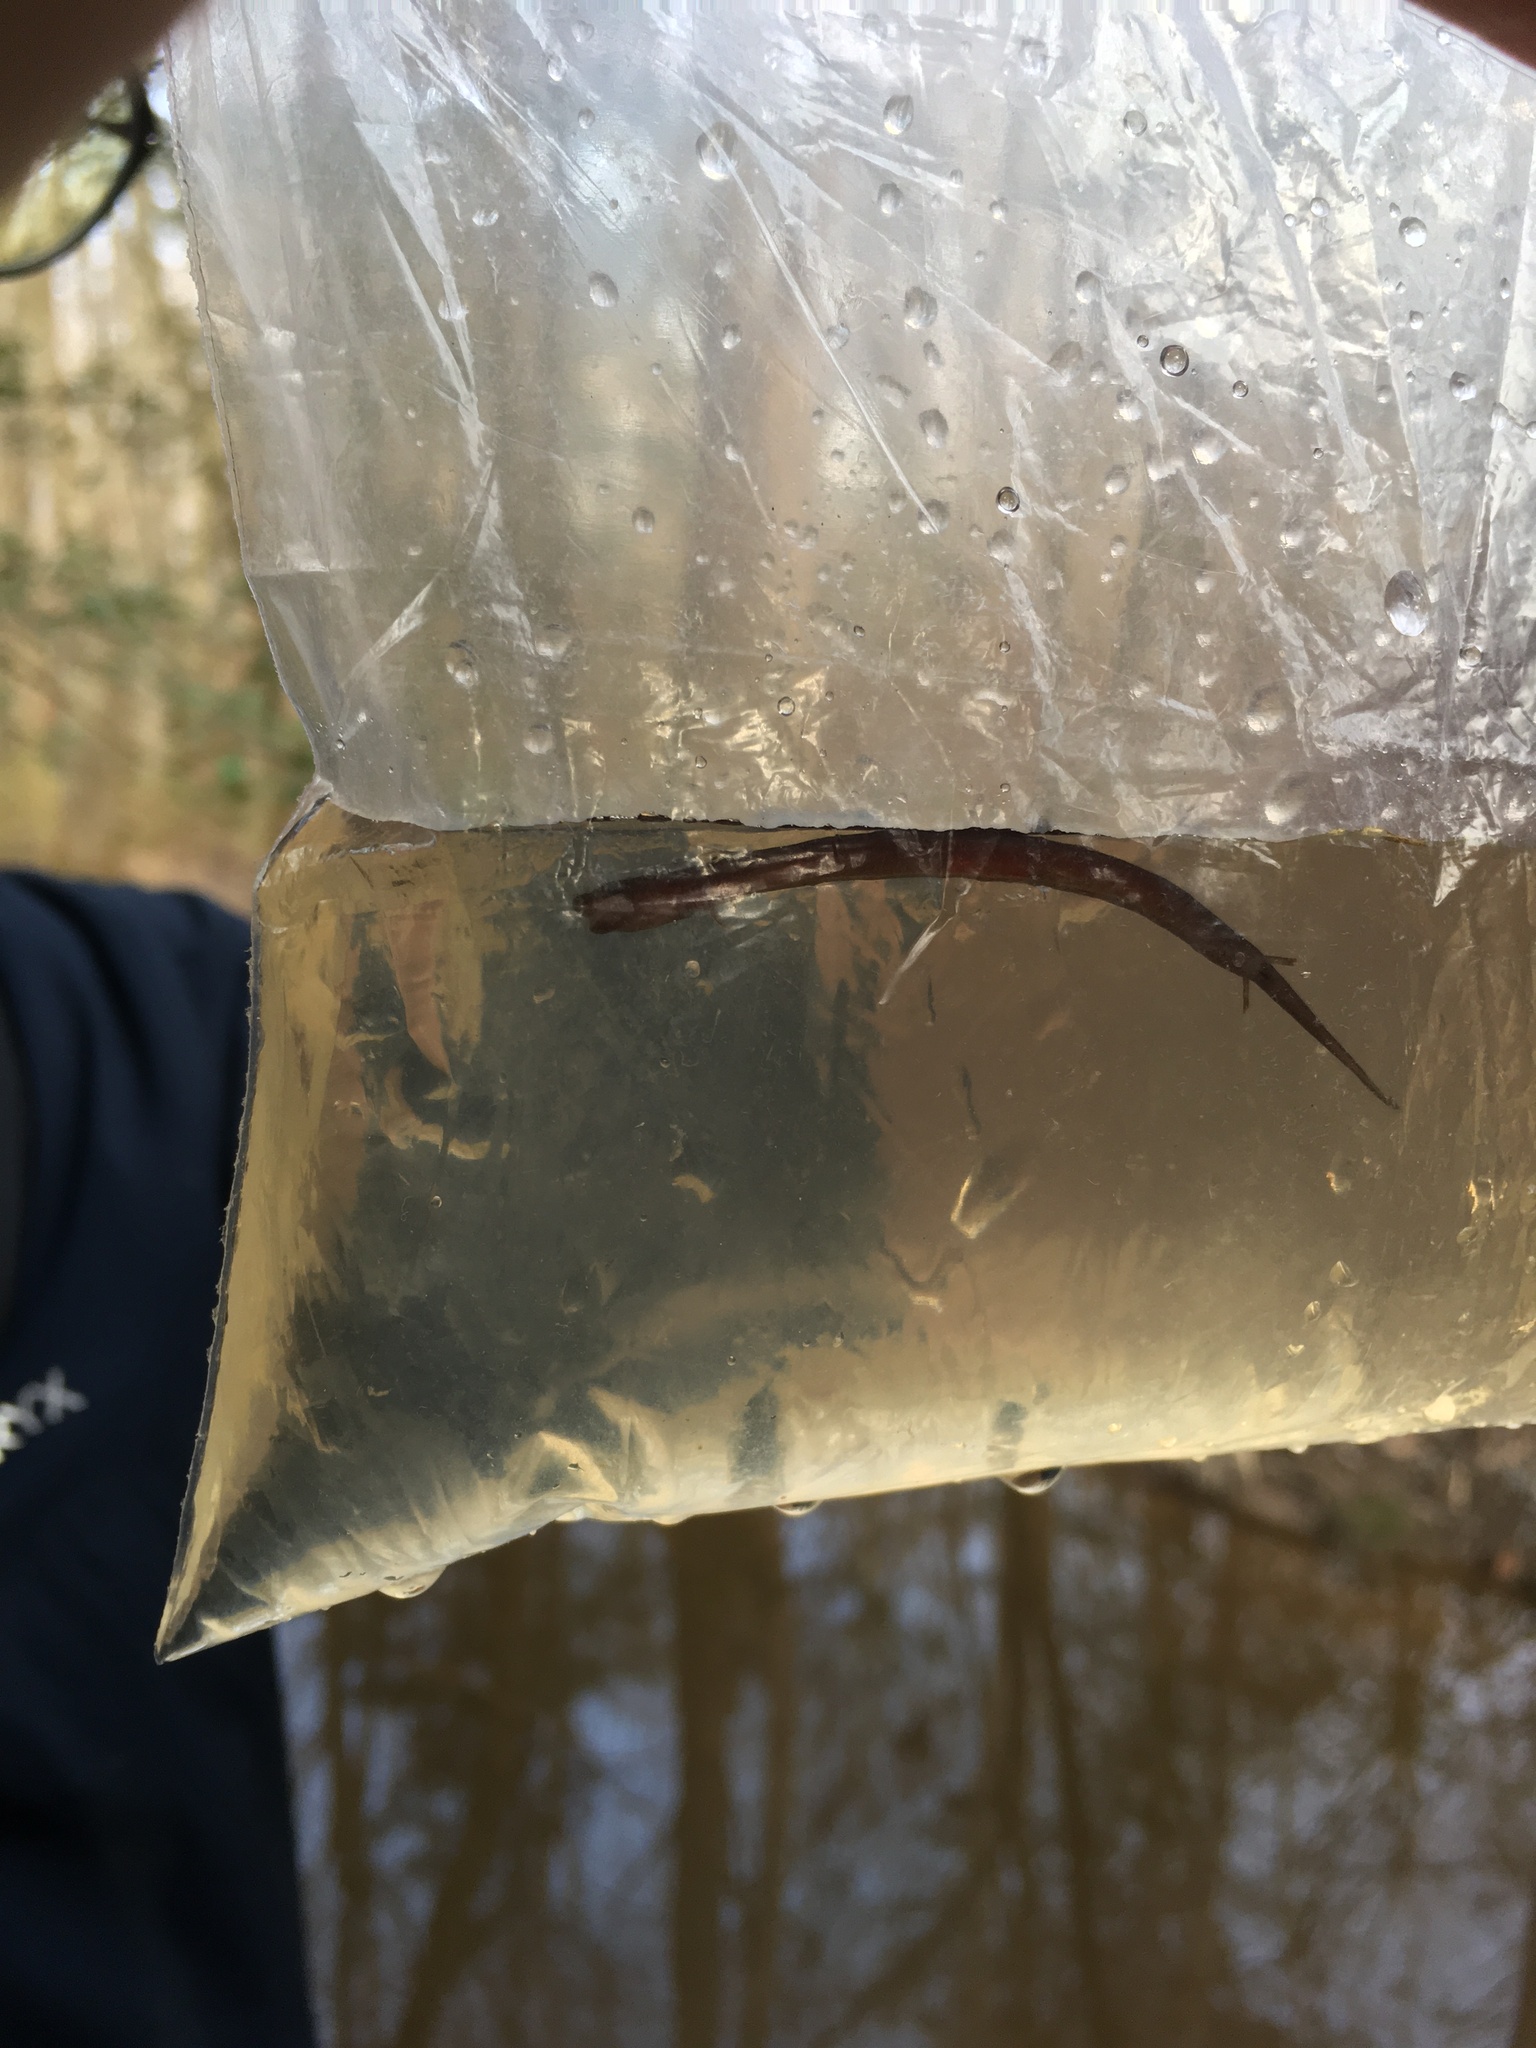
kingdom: Animalia
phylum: Chordata
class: Amphibia
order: Caudata
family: Amphiumidae
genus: Amphiuma
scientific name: Amphiuma means
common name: Two-toed amphiuma
